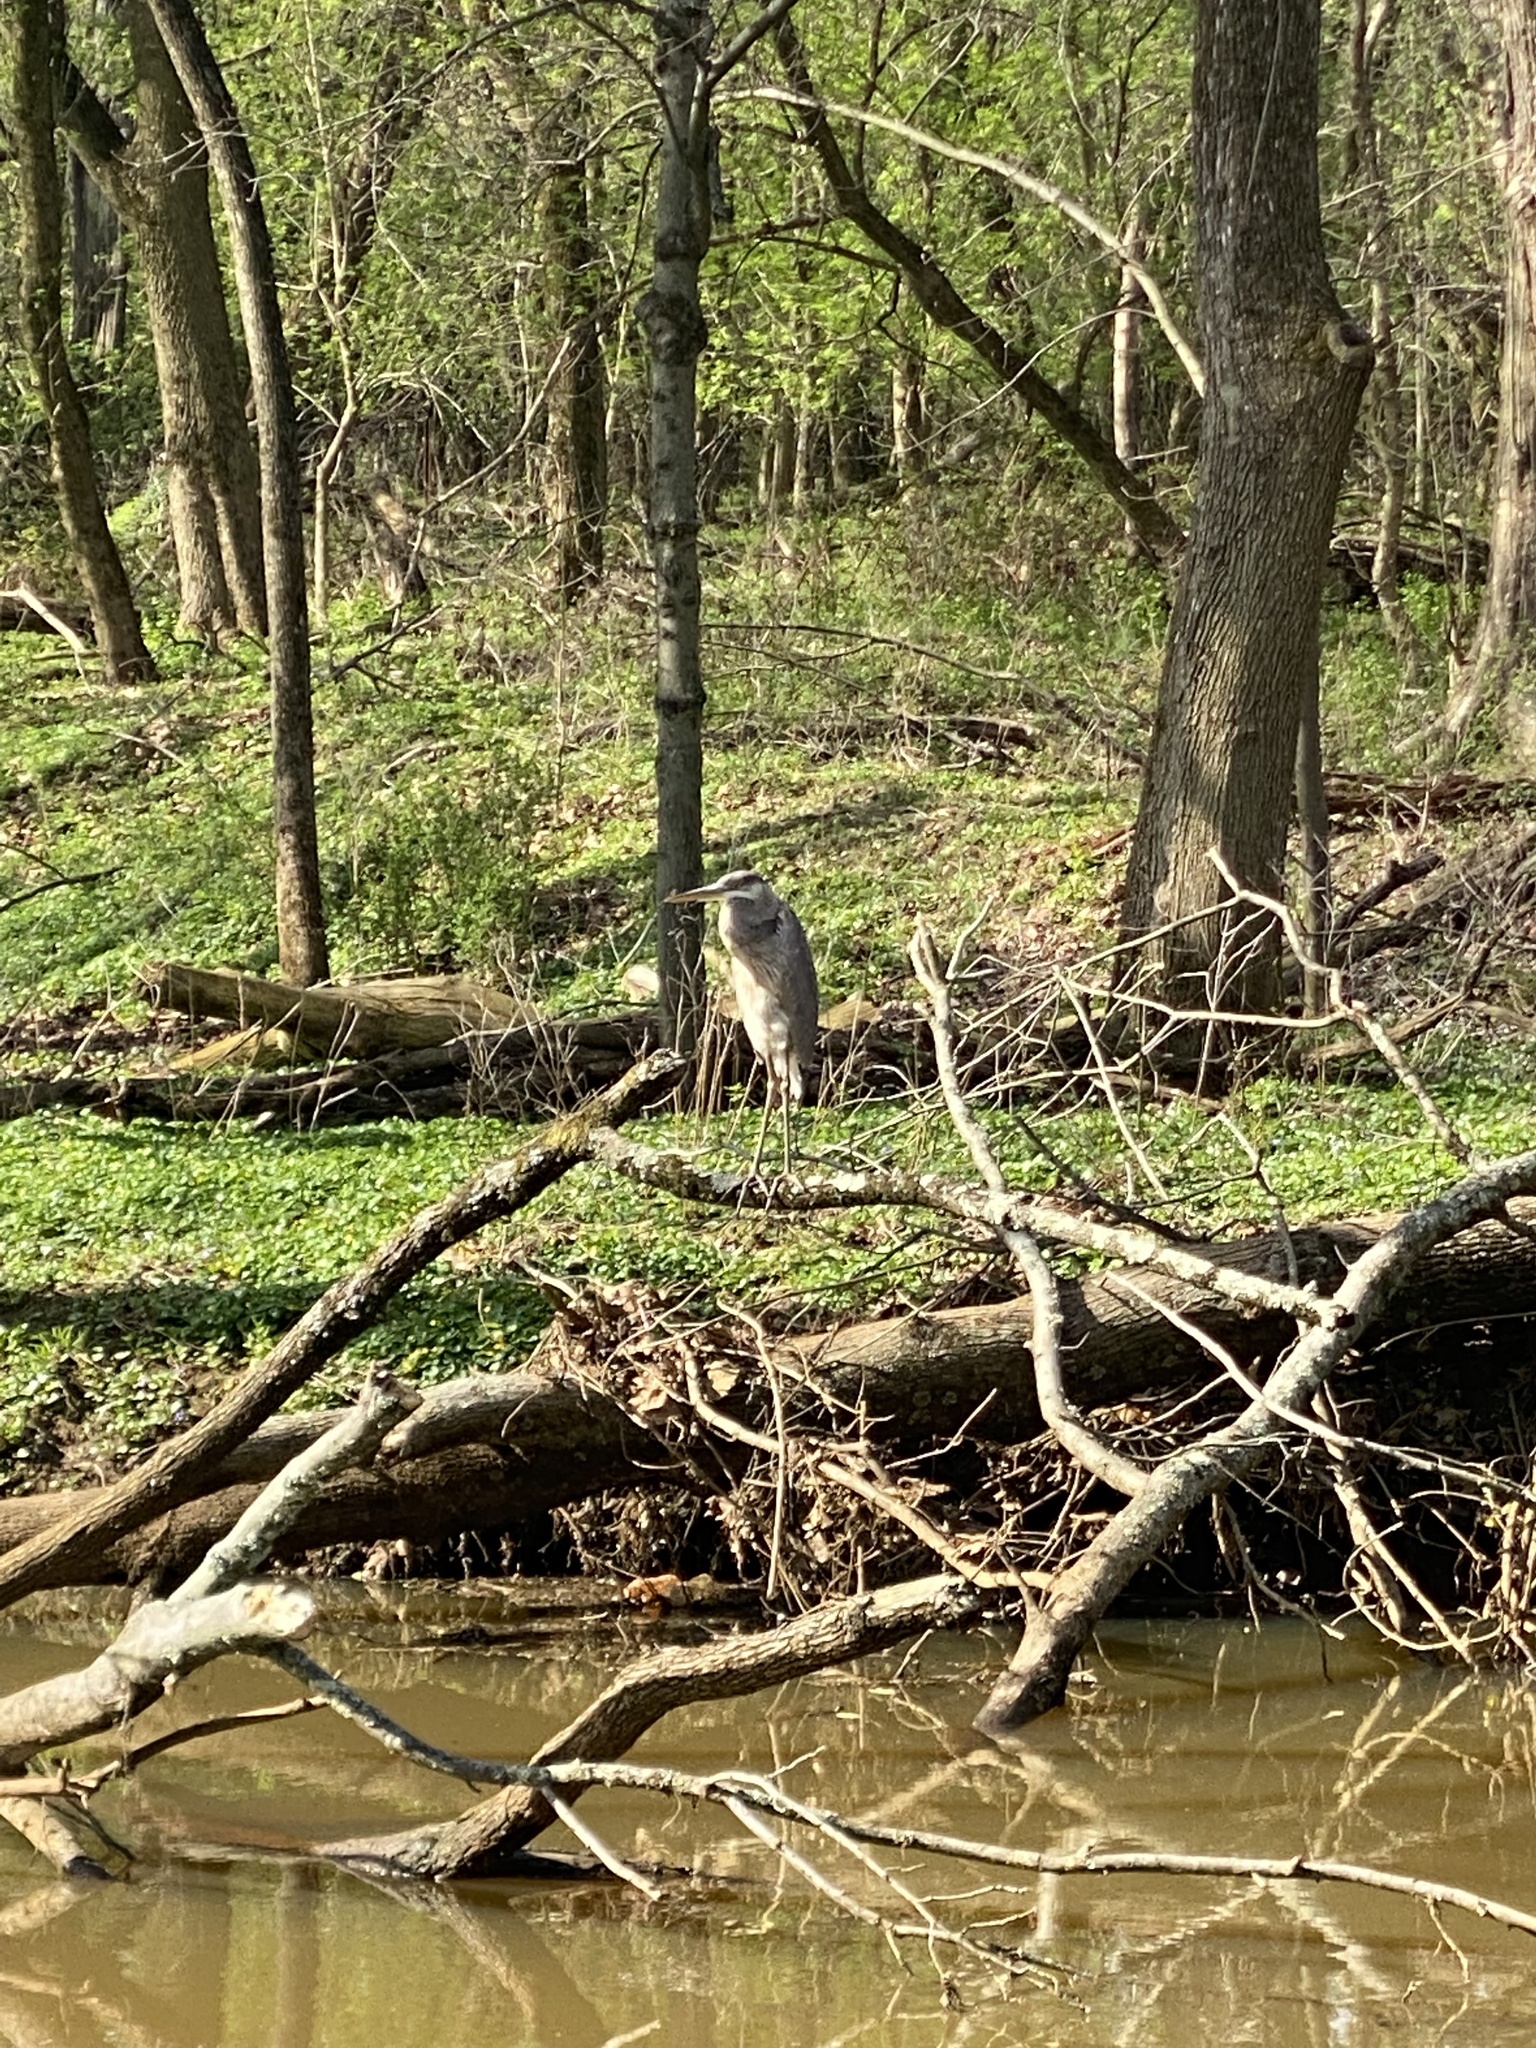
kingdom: Animalia
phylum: Chordata
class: Aves
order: Pelecaniformes
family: Ardeidae
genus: Ardea
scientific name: Ardea herodias
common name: Great blue heron
